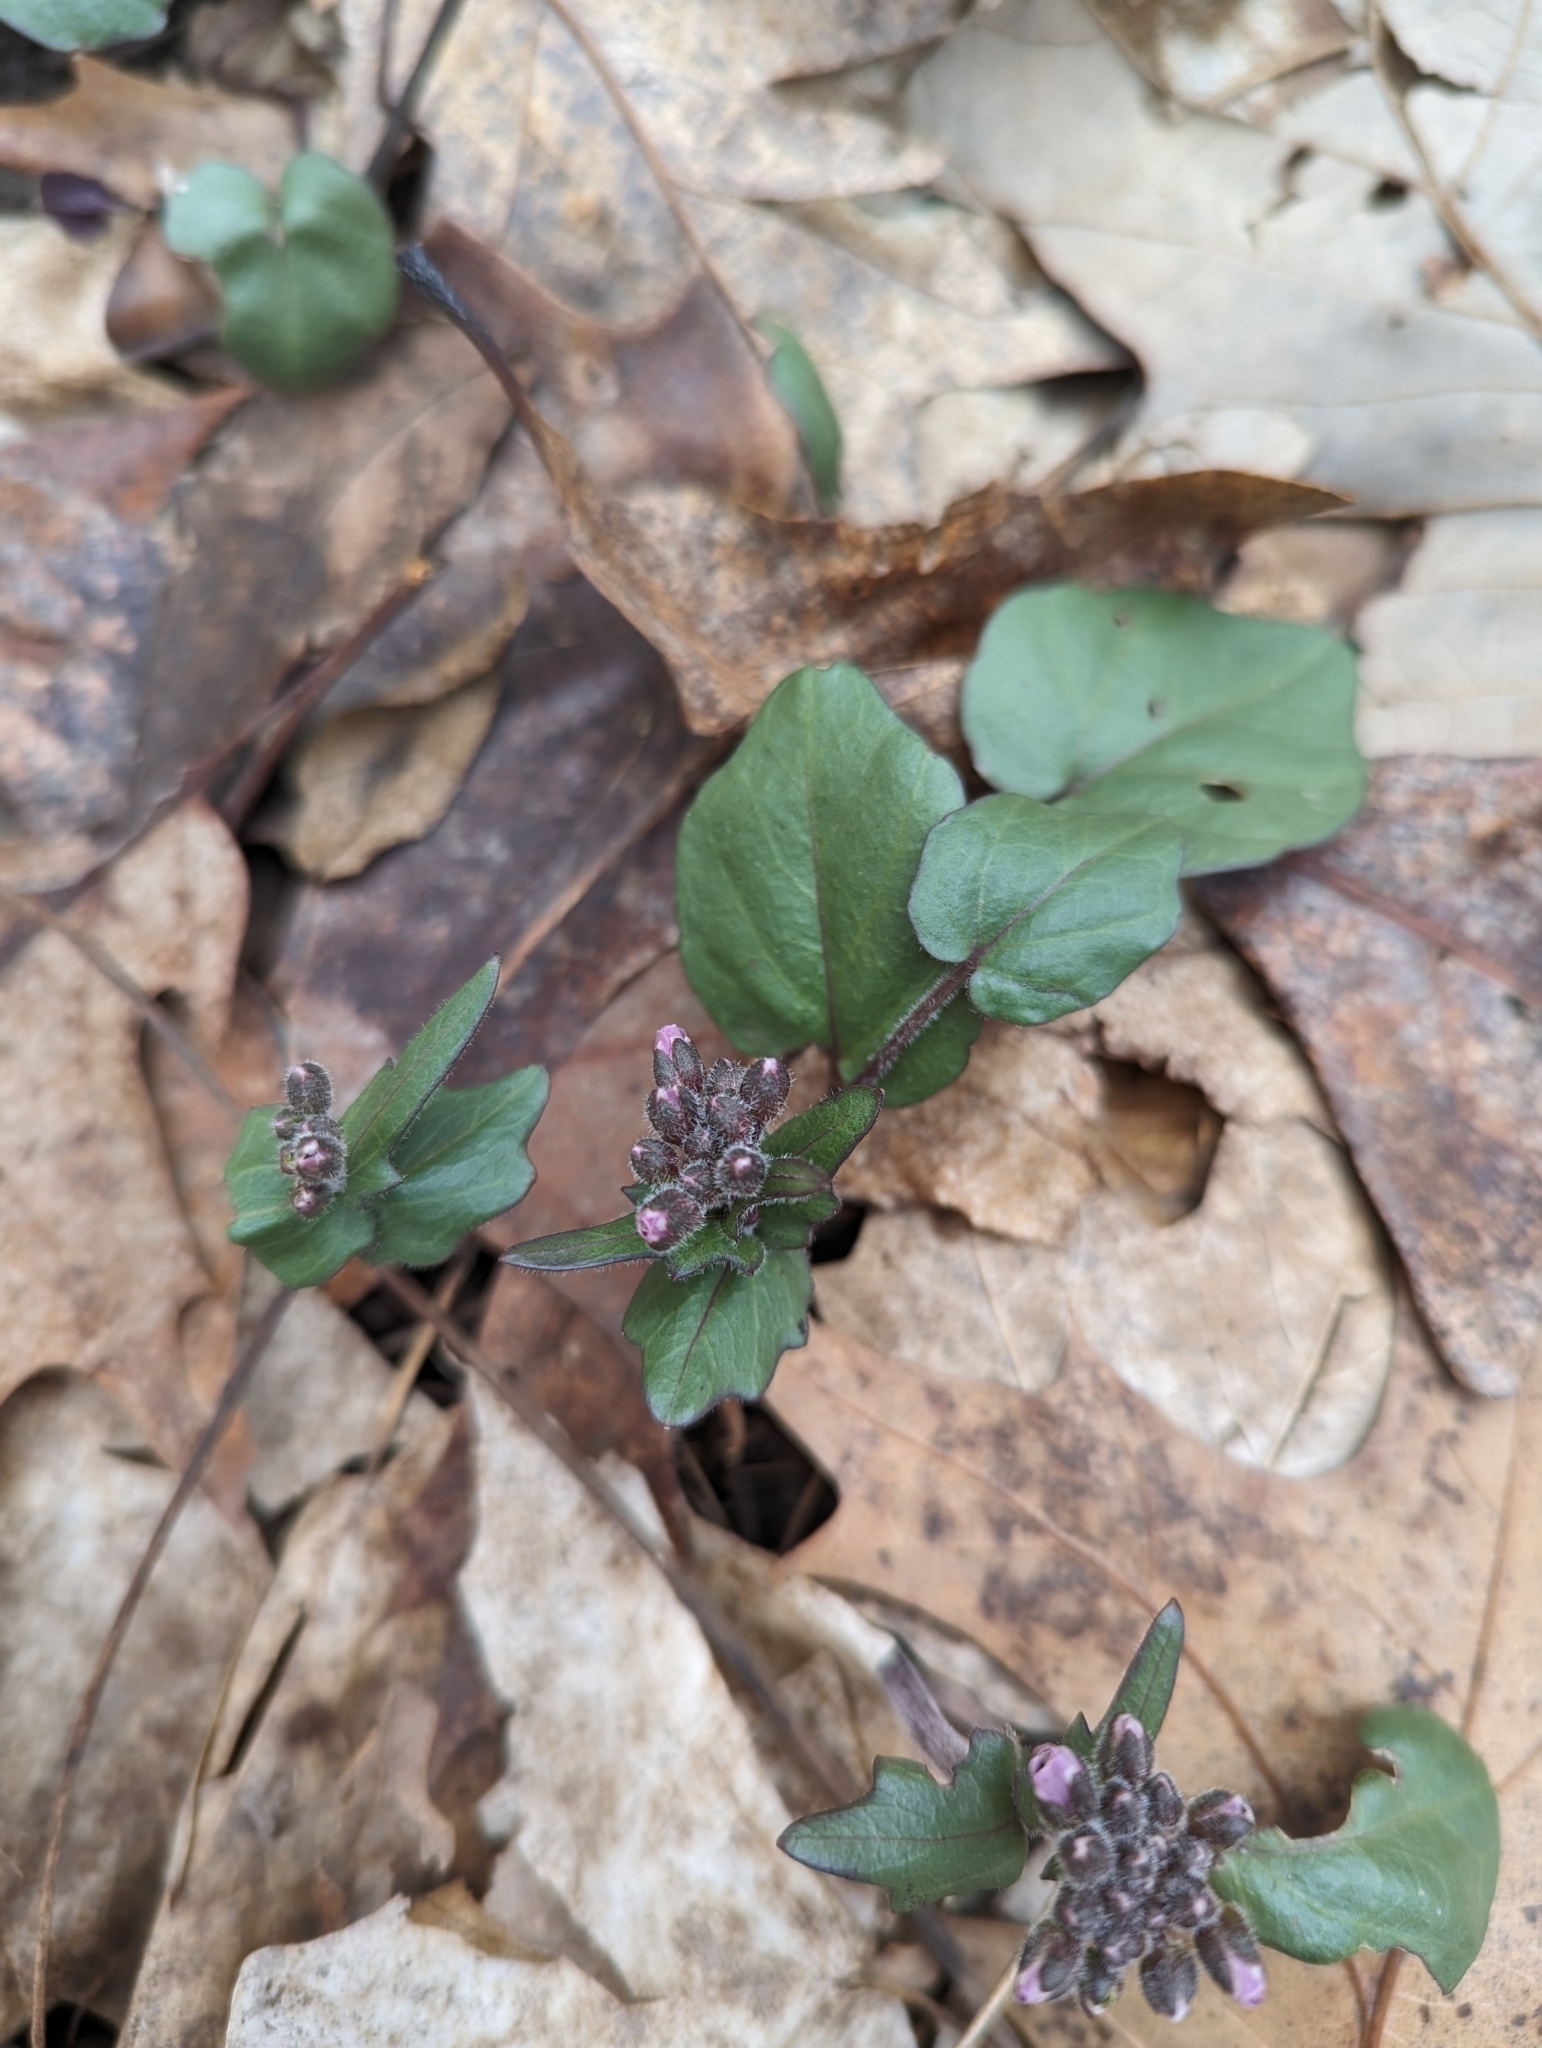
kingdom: Plantae
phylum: Tracheophyta
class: Magnoliopsida
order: Brassicales
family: Brassicaceae
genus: Cardamine
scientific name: Cardamine douglassii
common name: Purple cress
